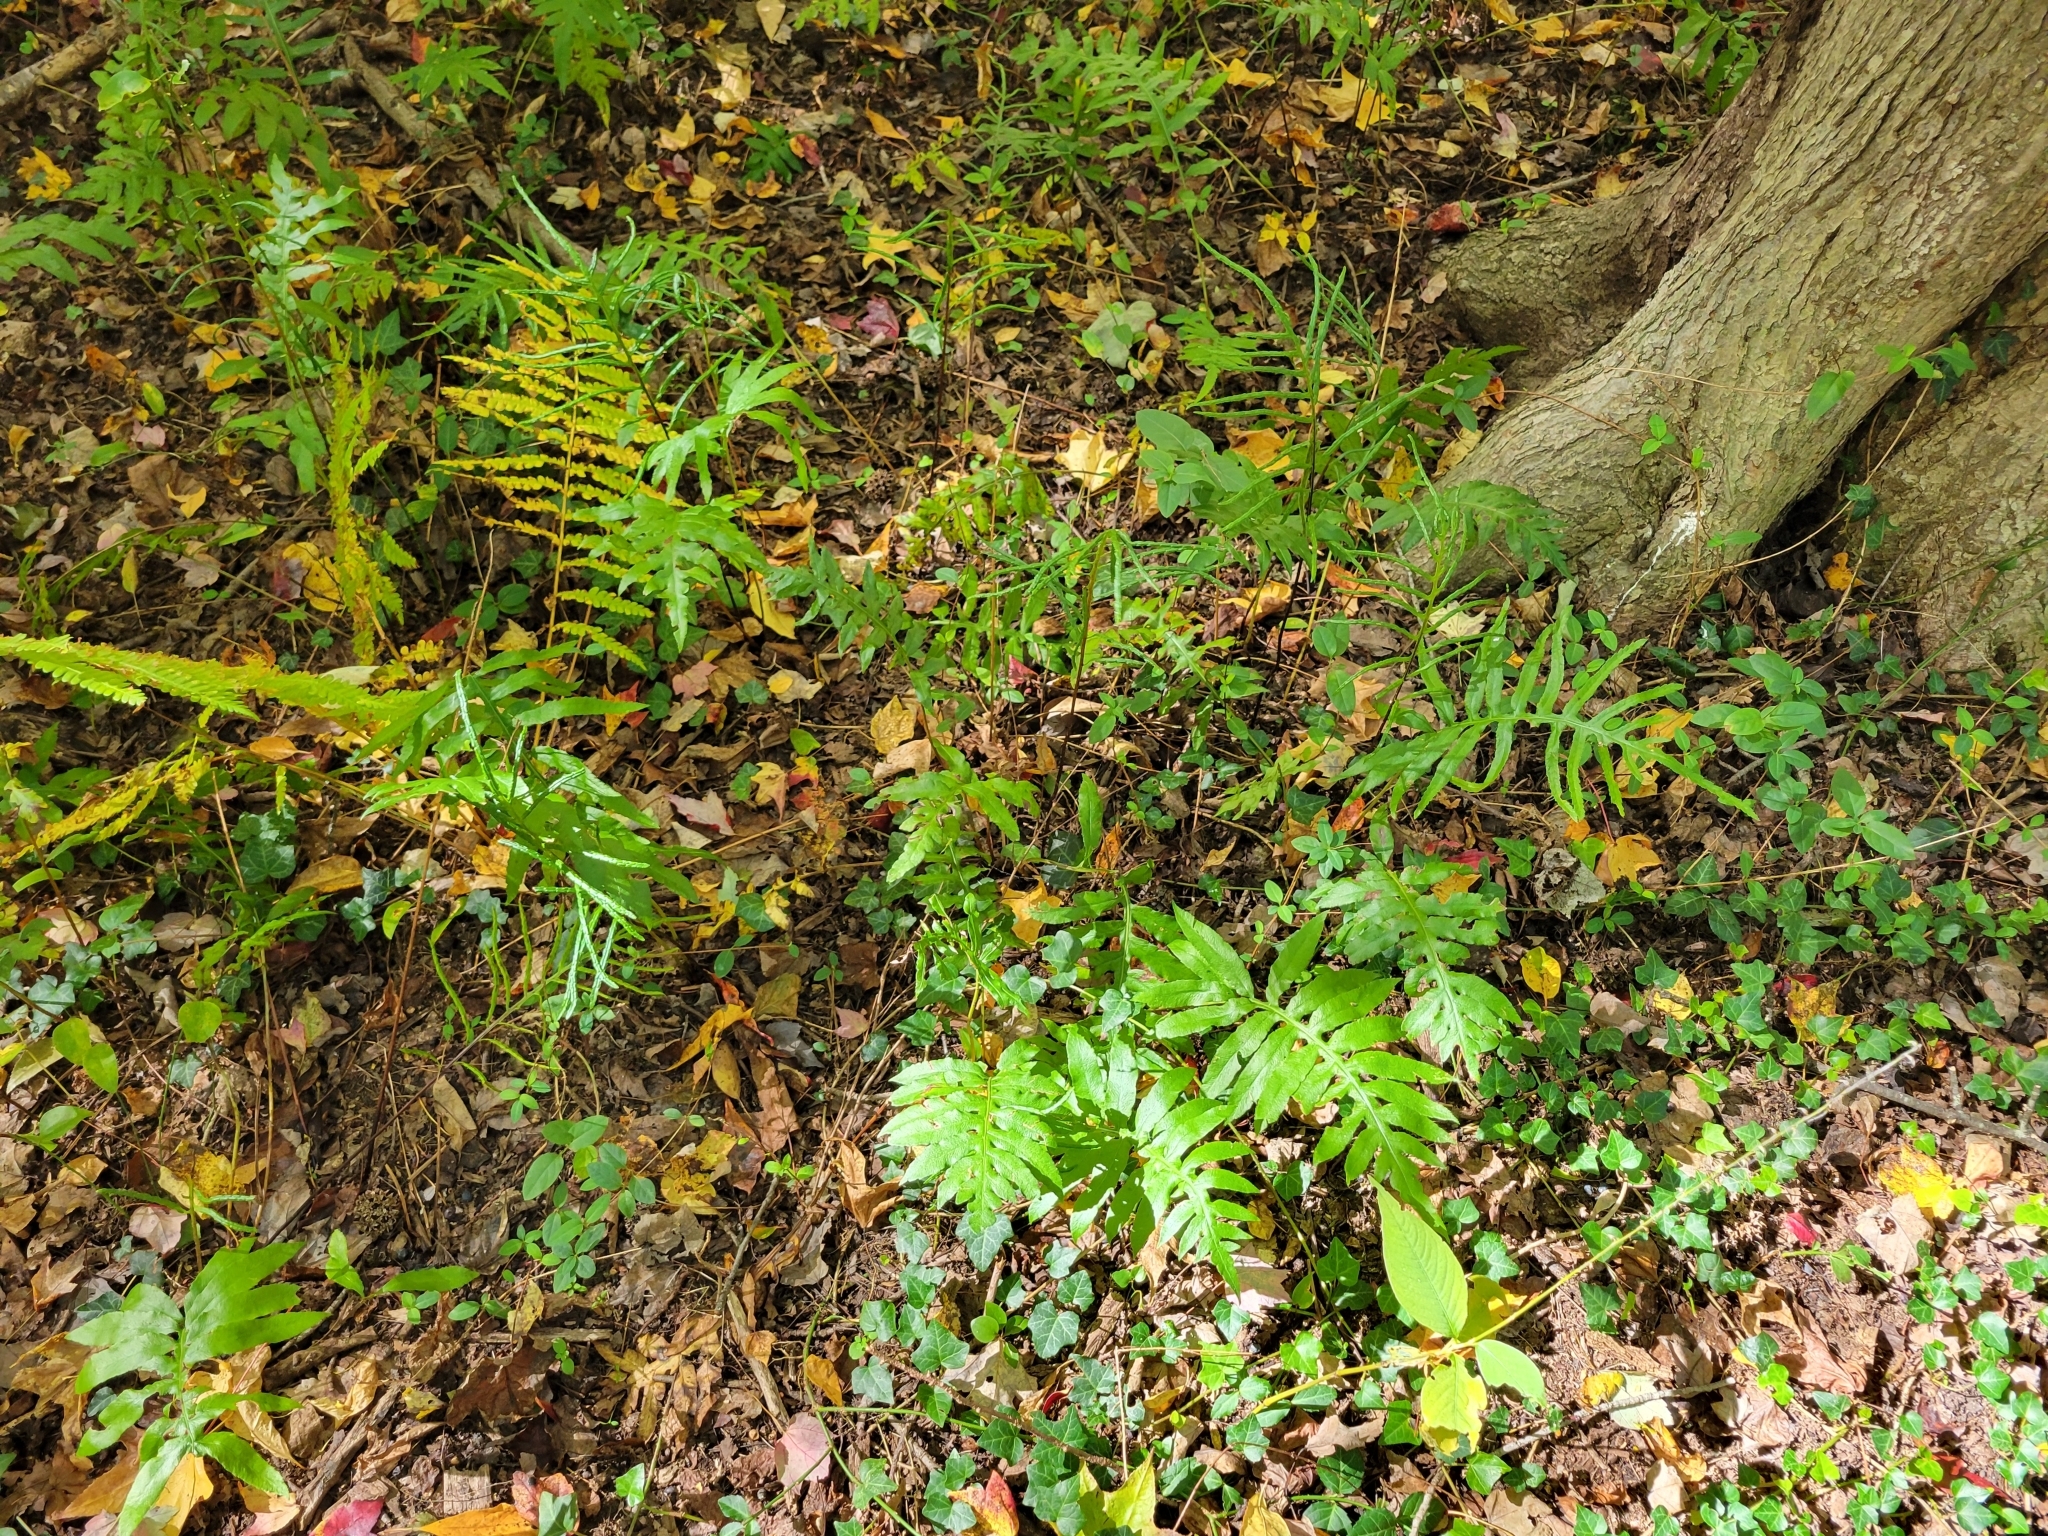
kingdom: Plantae
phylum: Tracheophyta
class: Polypodiopsida
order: Polypodiales
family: Blechnaceae
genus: Lorinseria
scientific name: Lorinseria areolata
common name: Dwarf chain fern
